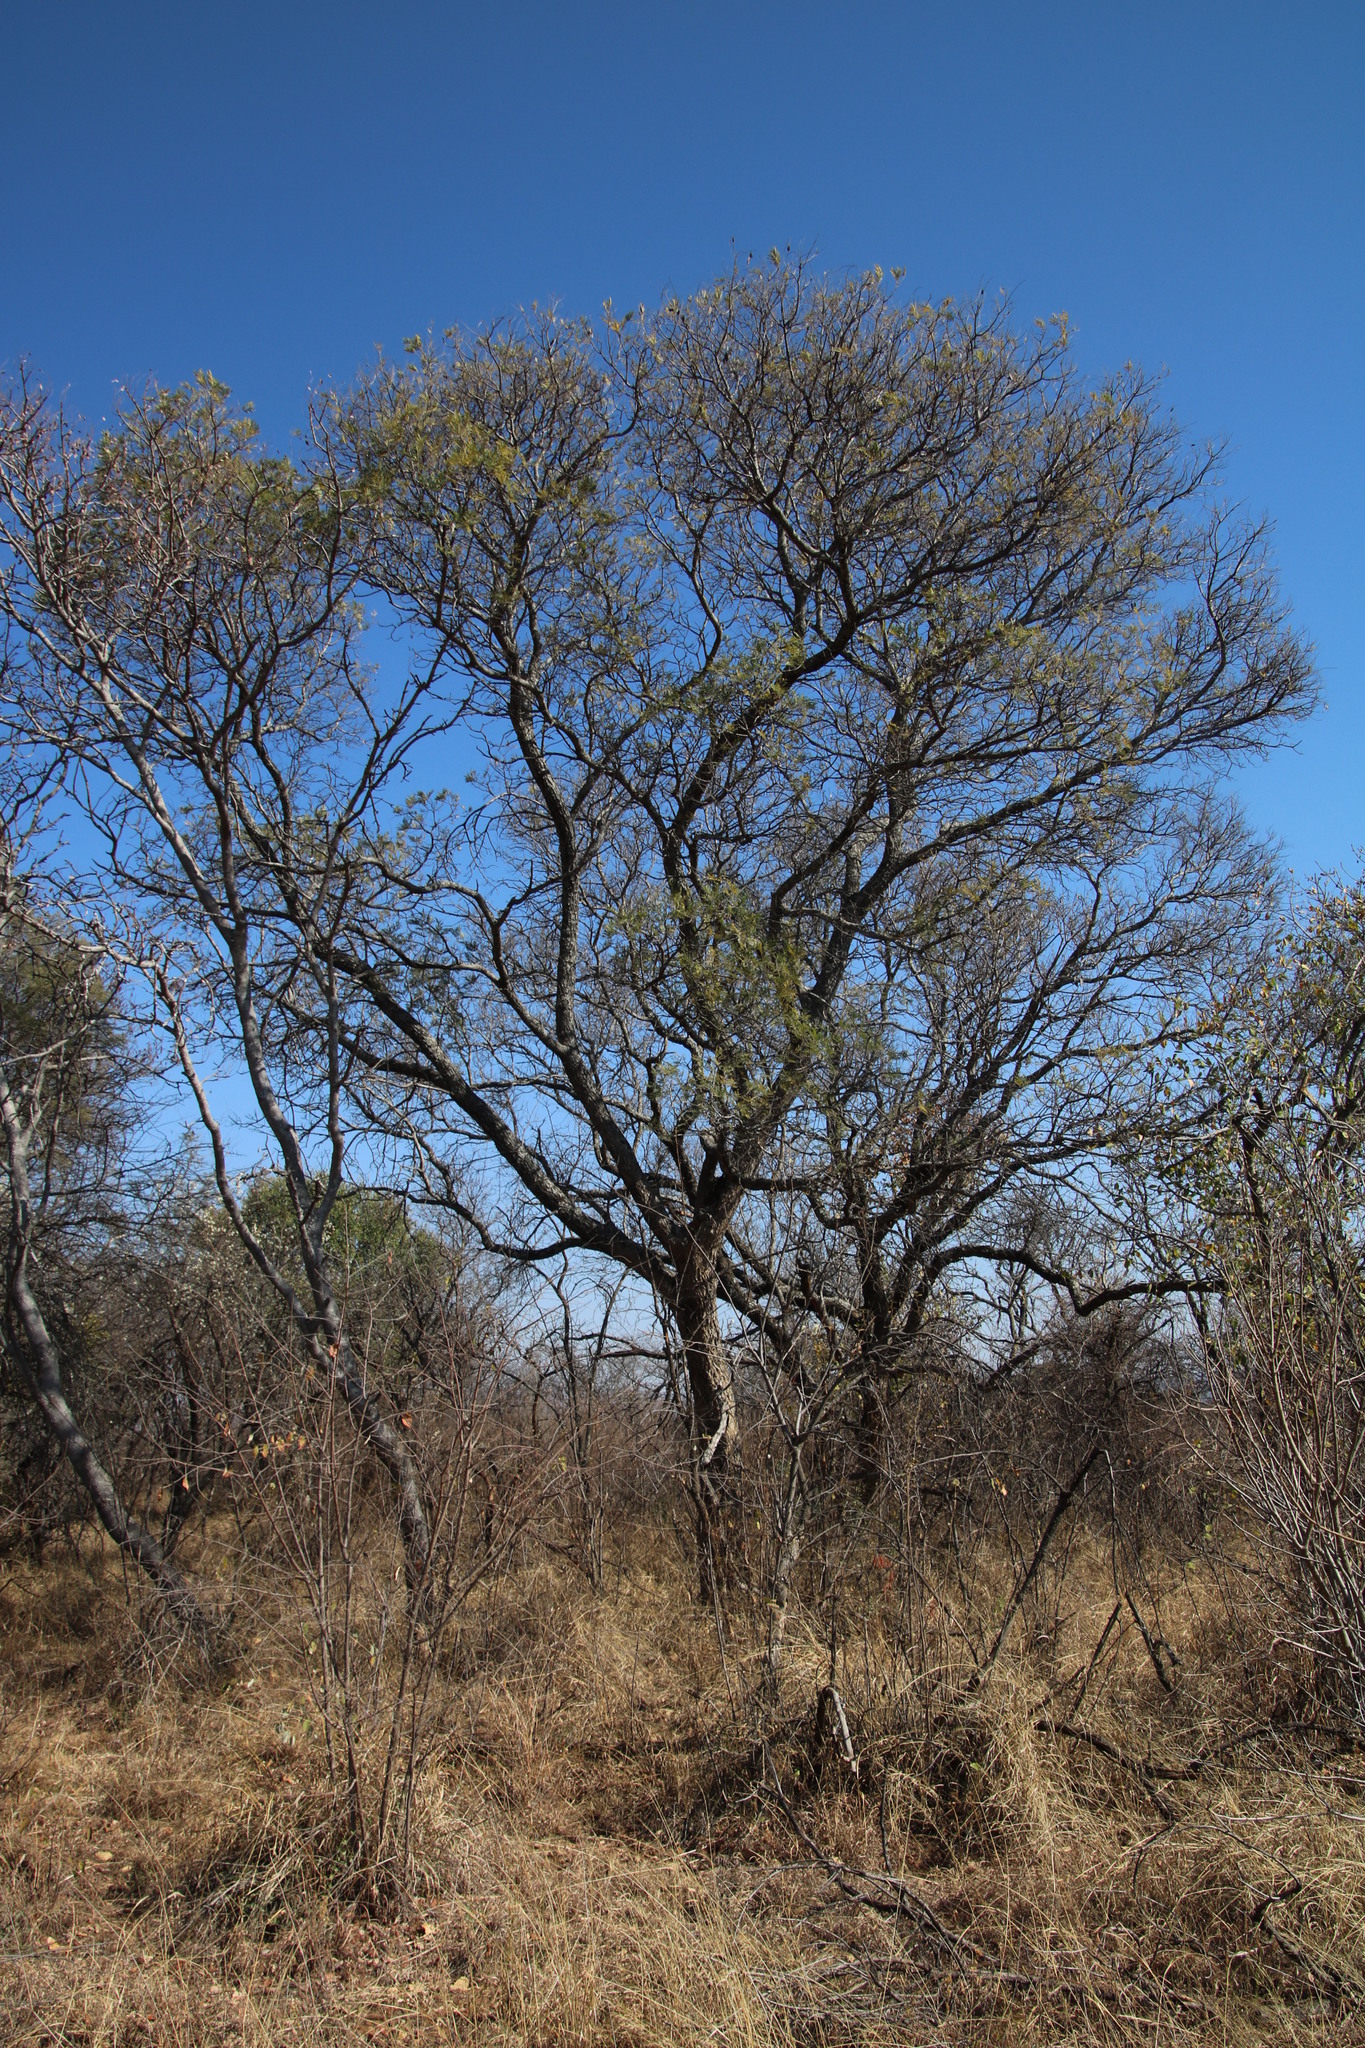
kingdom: Plantae
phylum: Tracheophyta
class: Magnoliopsida
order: Fabales
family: Fabaceae
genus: Peltophorum
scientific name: Peltophorum africanum
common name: African black wattle
